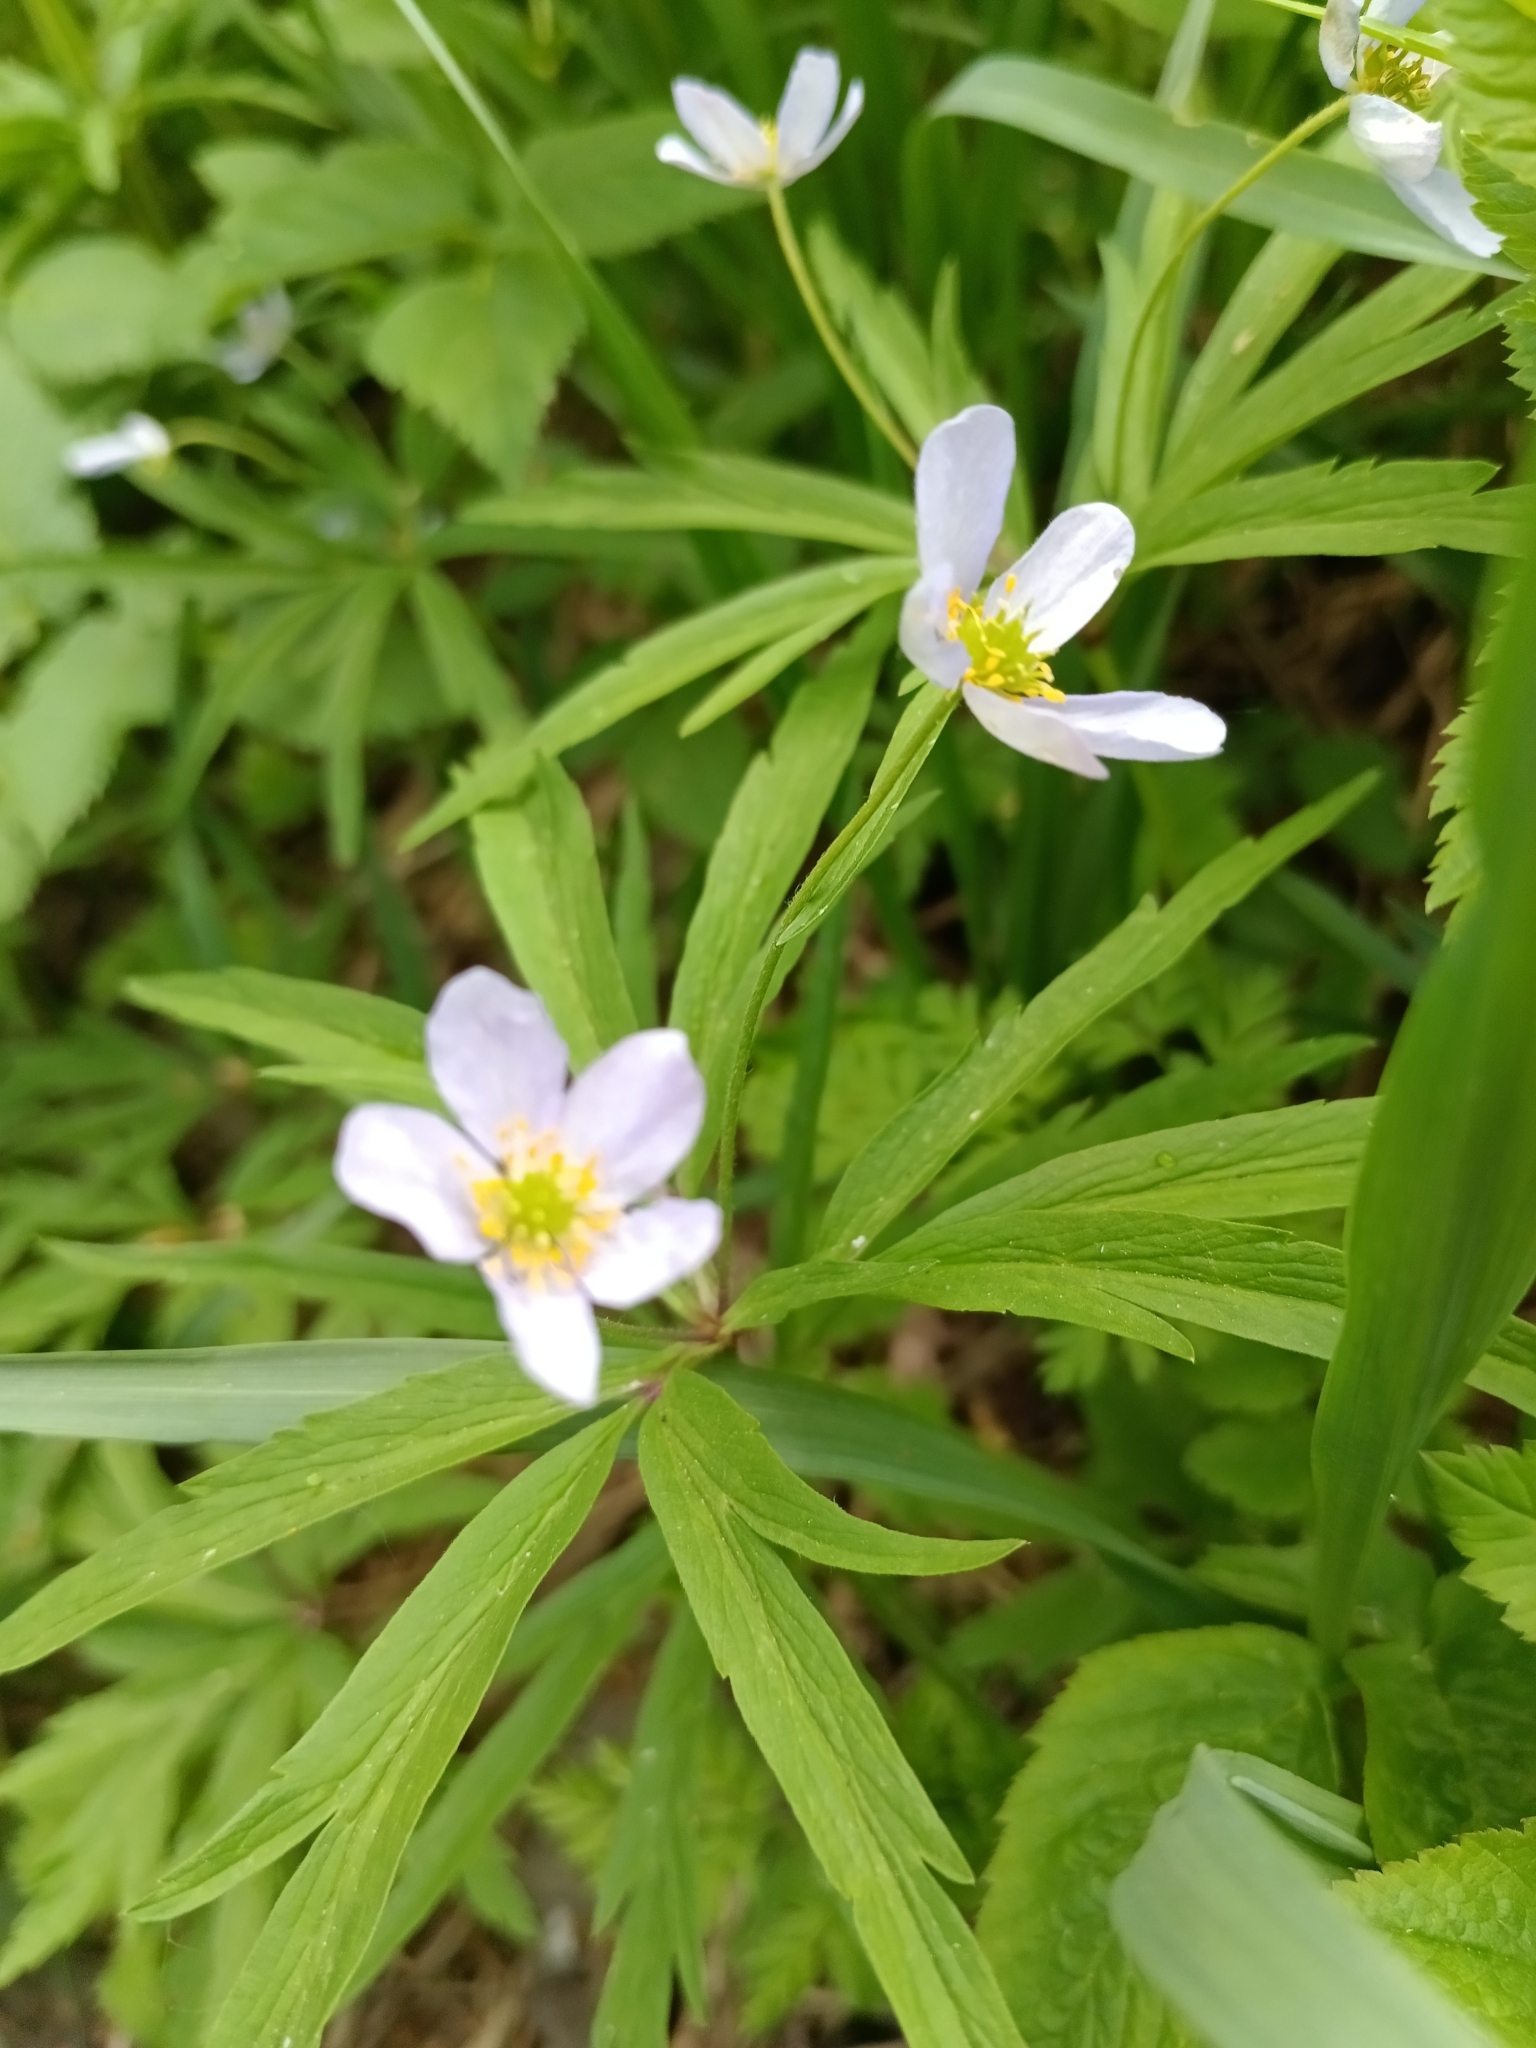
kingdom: Plantae
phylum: Tracheophyta
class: Magnoliopsida
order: Ranunculales
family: Ranunculaceae
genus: Anemone
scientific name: Anemone caerulea
